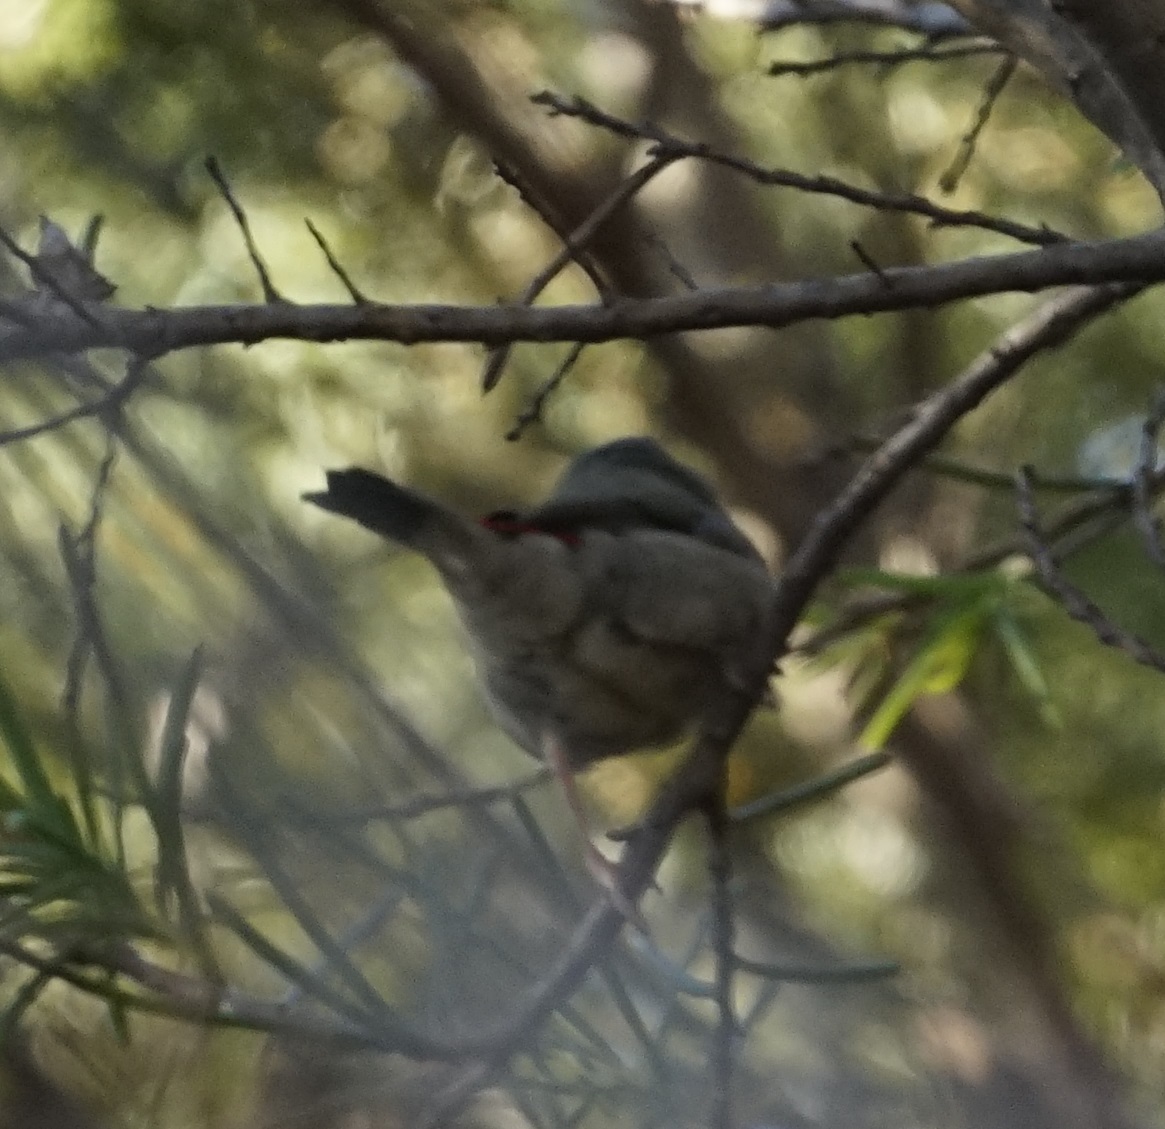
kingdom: Animalia
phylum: Chordata
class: Aves
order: Passeriformes
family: Estrildidae
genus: Neochmia
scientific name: Neochmia temporalis
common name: Red-browed finch
